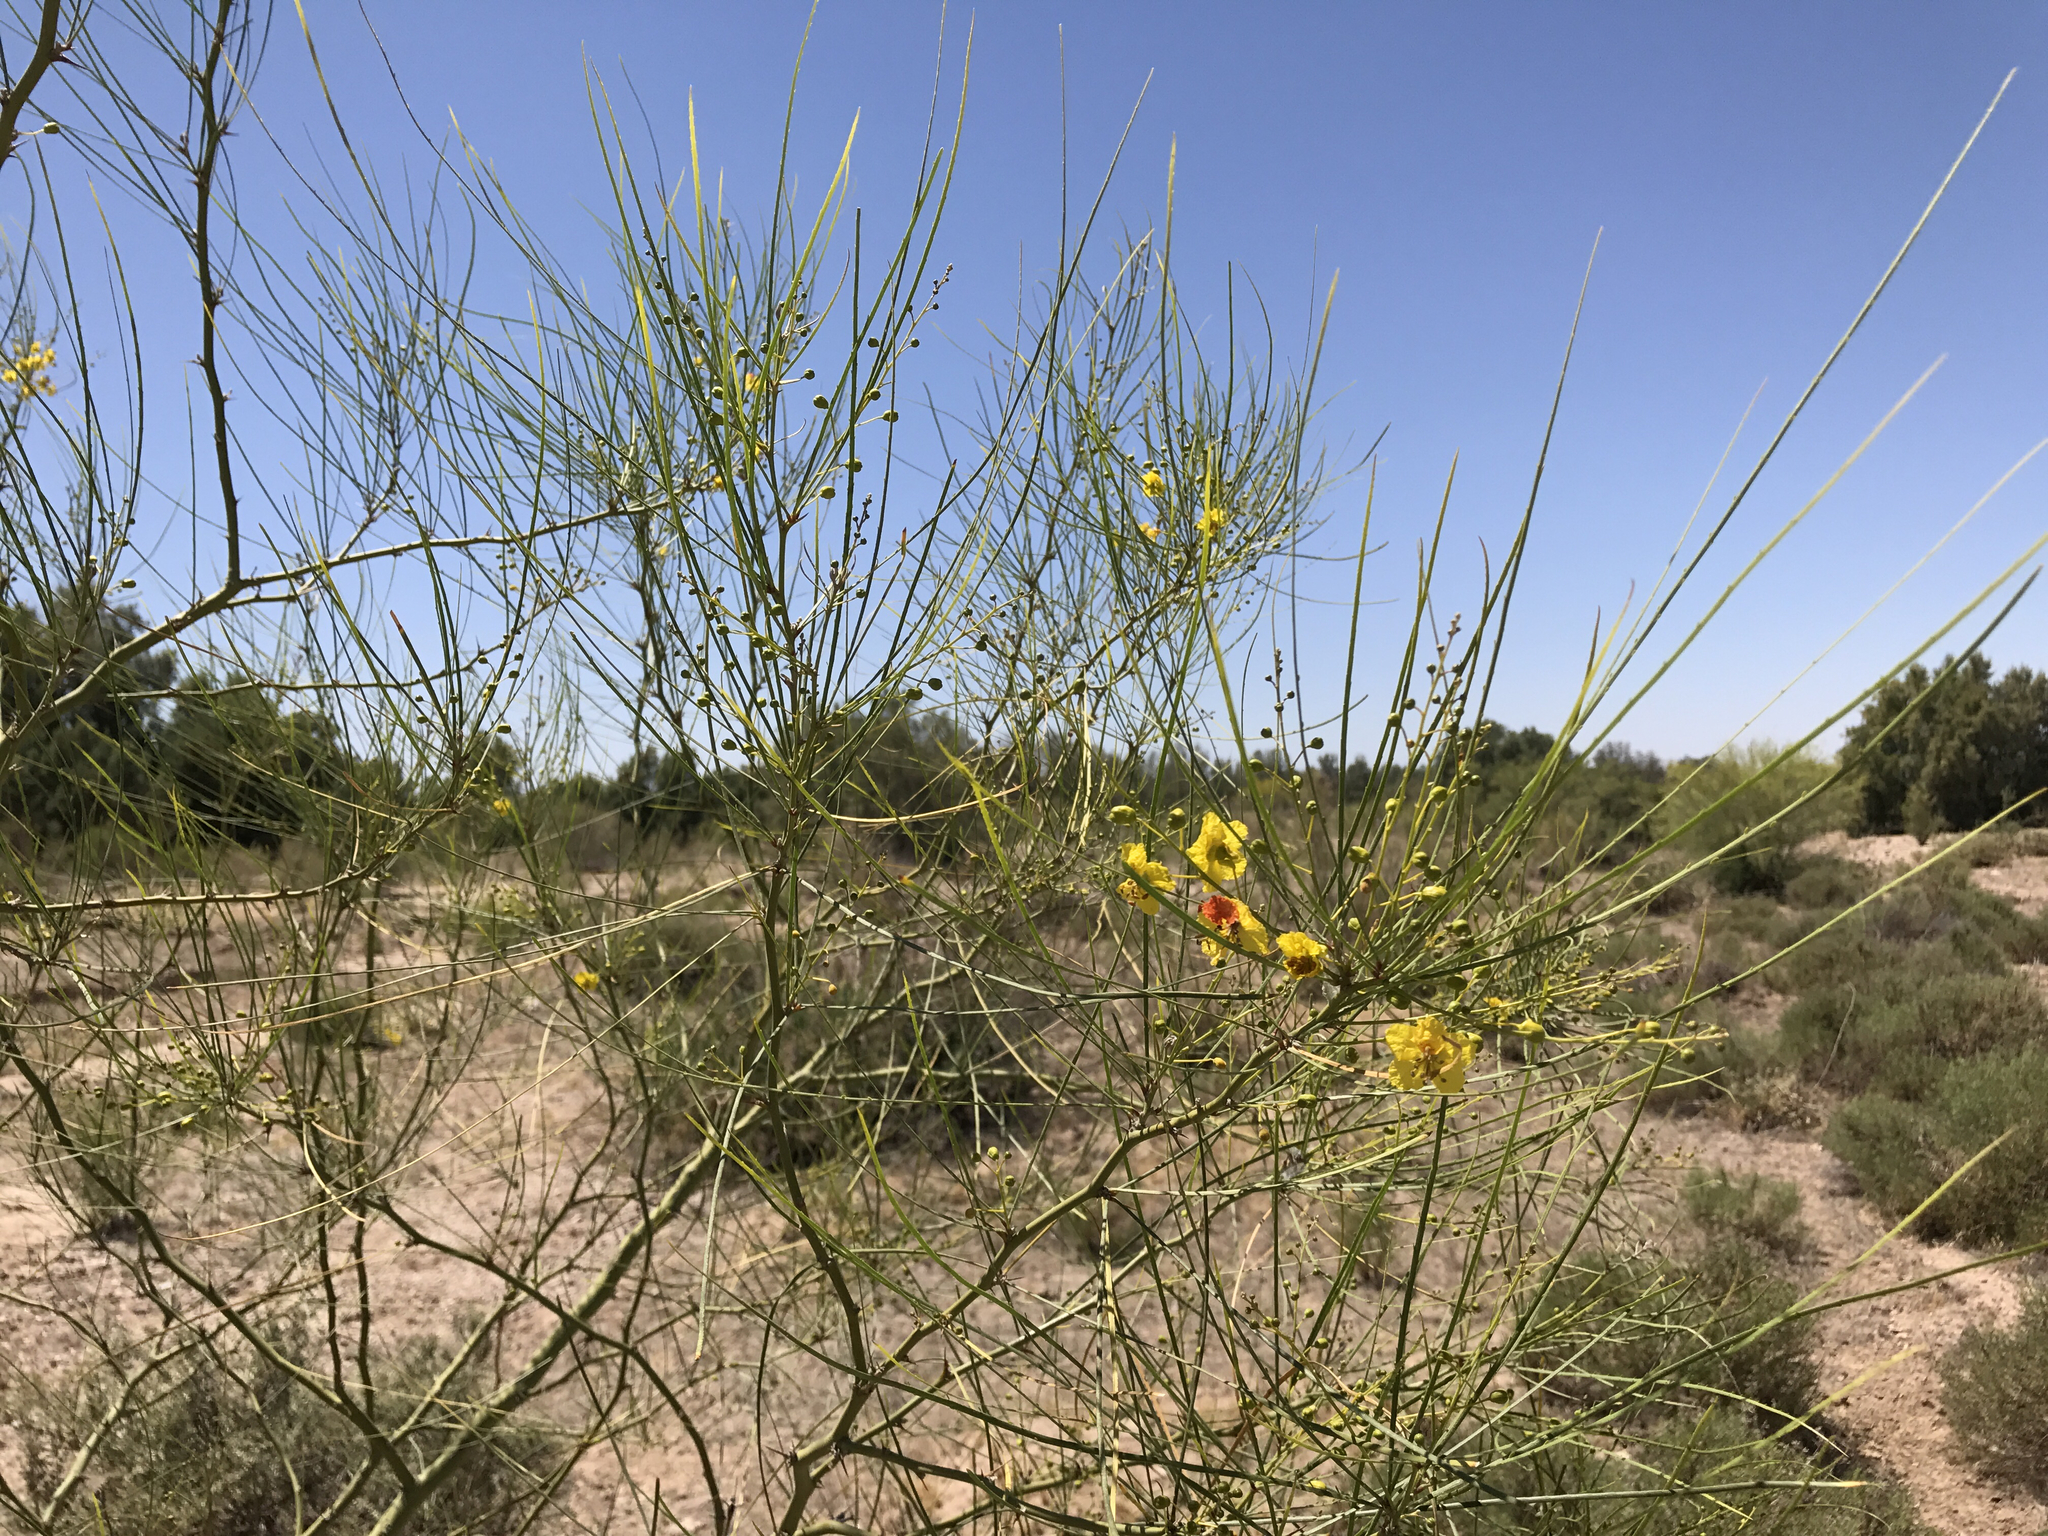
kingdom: Plantae
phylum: Tracheophyta
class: Magnoliopsida
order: Fabales
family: Fabaceae
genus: Parkinsonia
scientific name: Parkinsonia aculeata
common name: Jerusalem thorn
